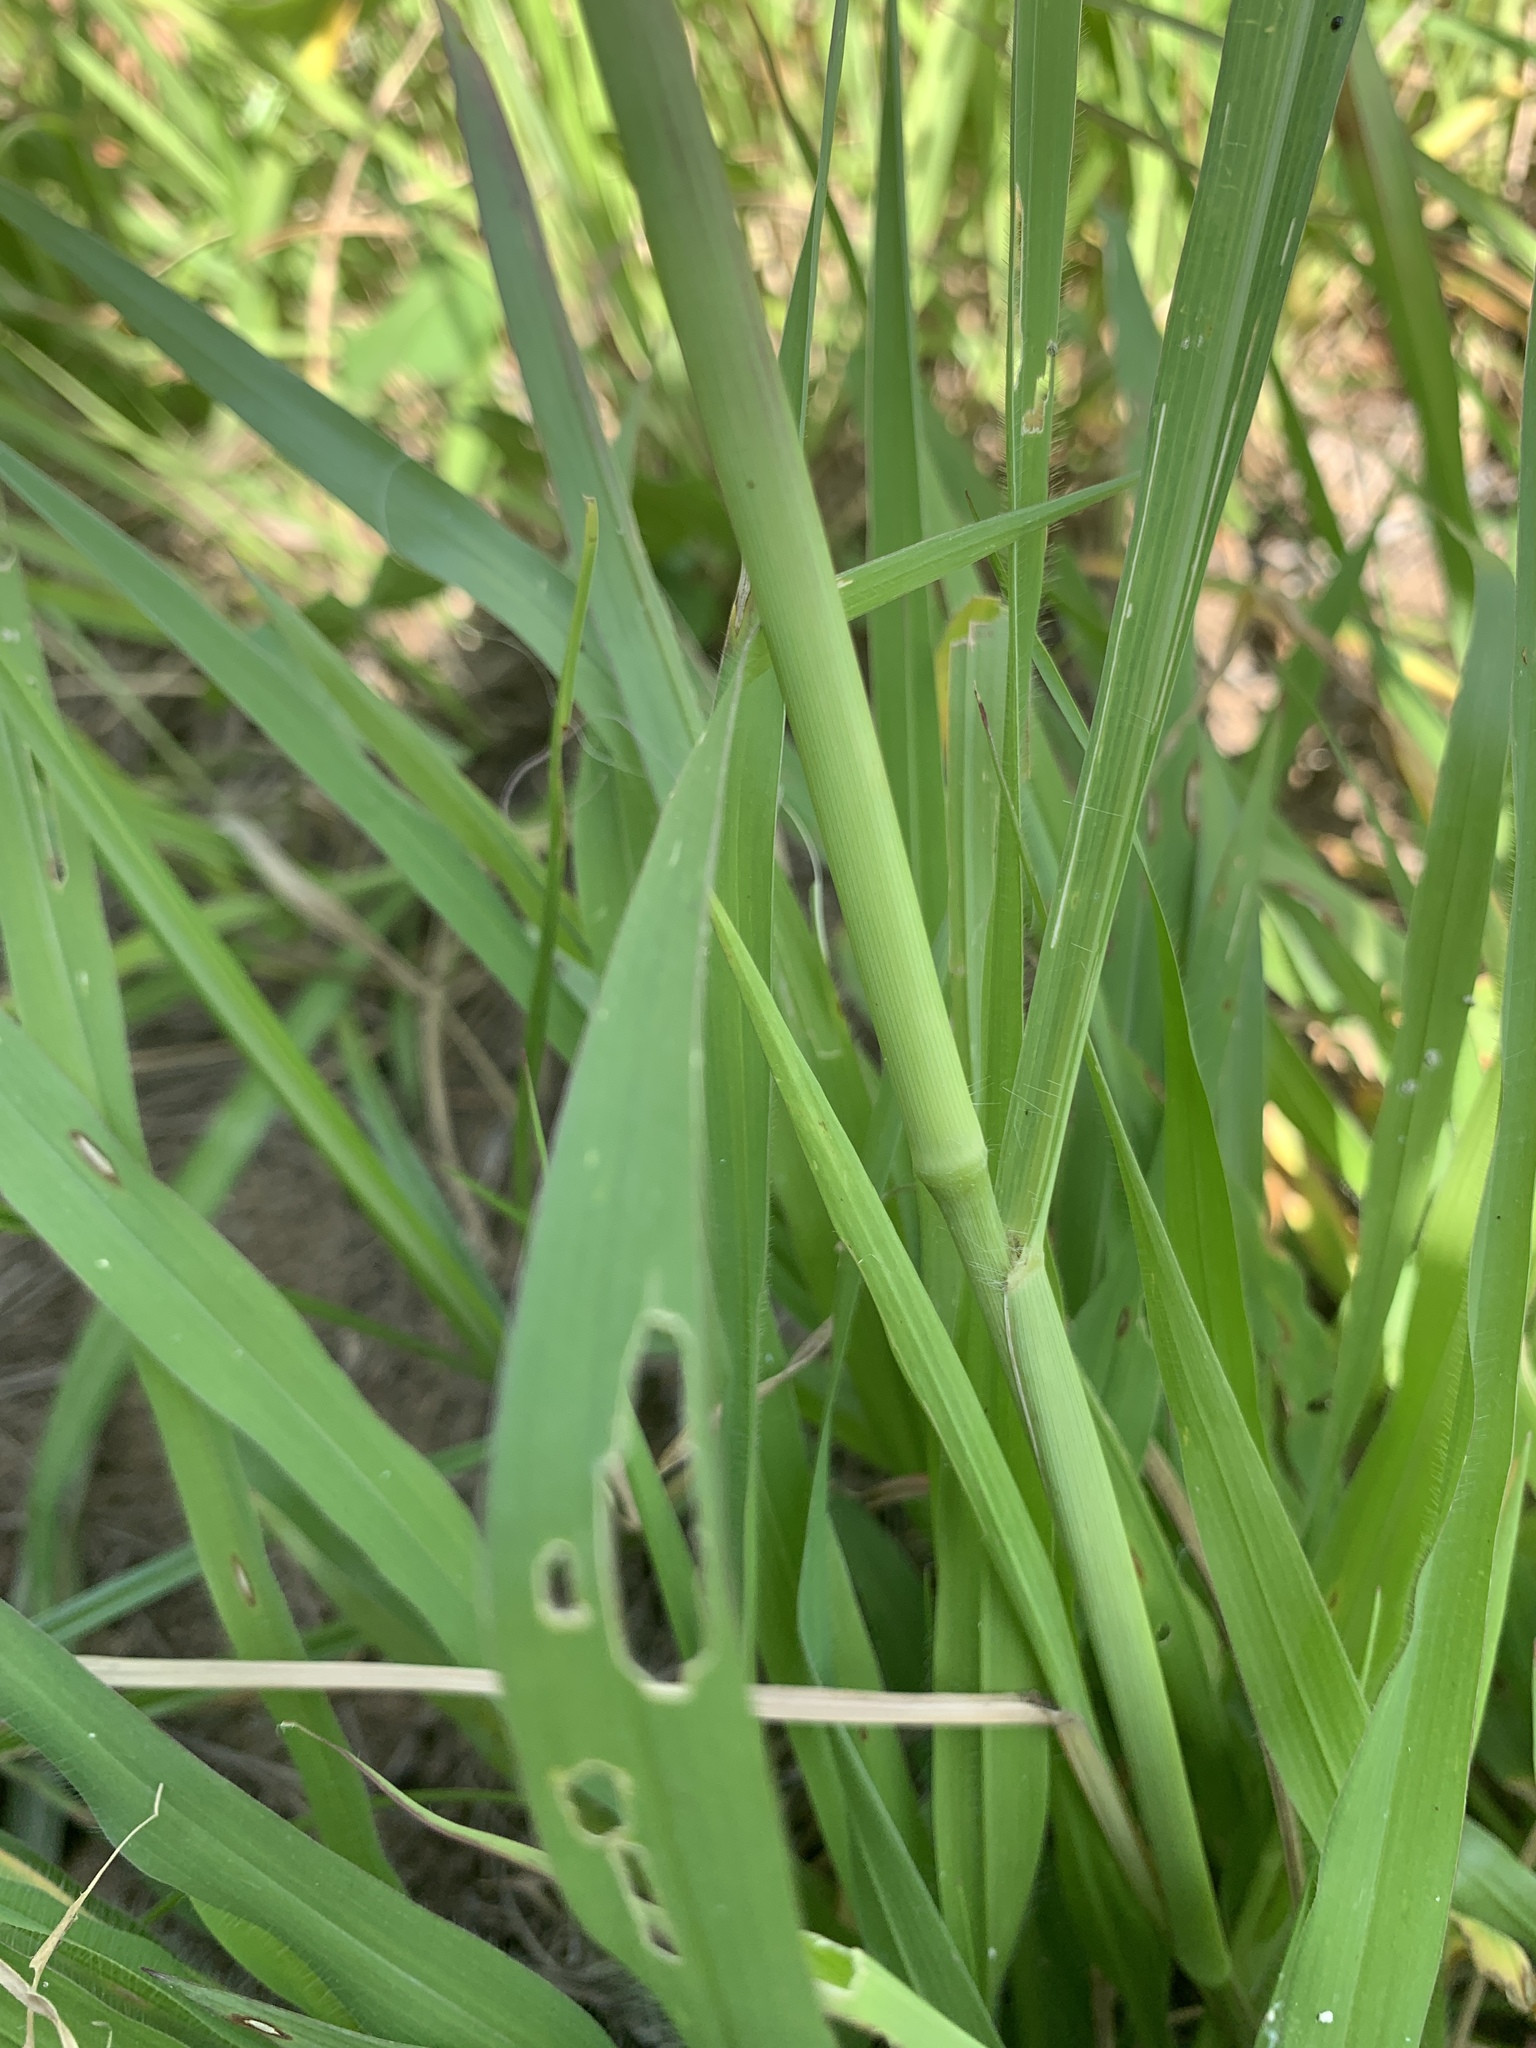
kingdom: Plantae
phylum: Tracheophyta
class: Liliopsida
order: Poales
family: Poaceae
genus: Megathyrsus
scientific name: Megathyrsus maximus
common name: Guineagrass
